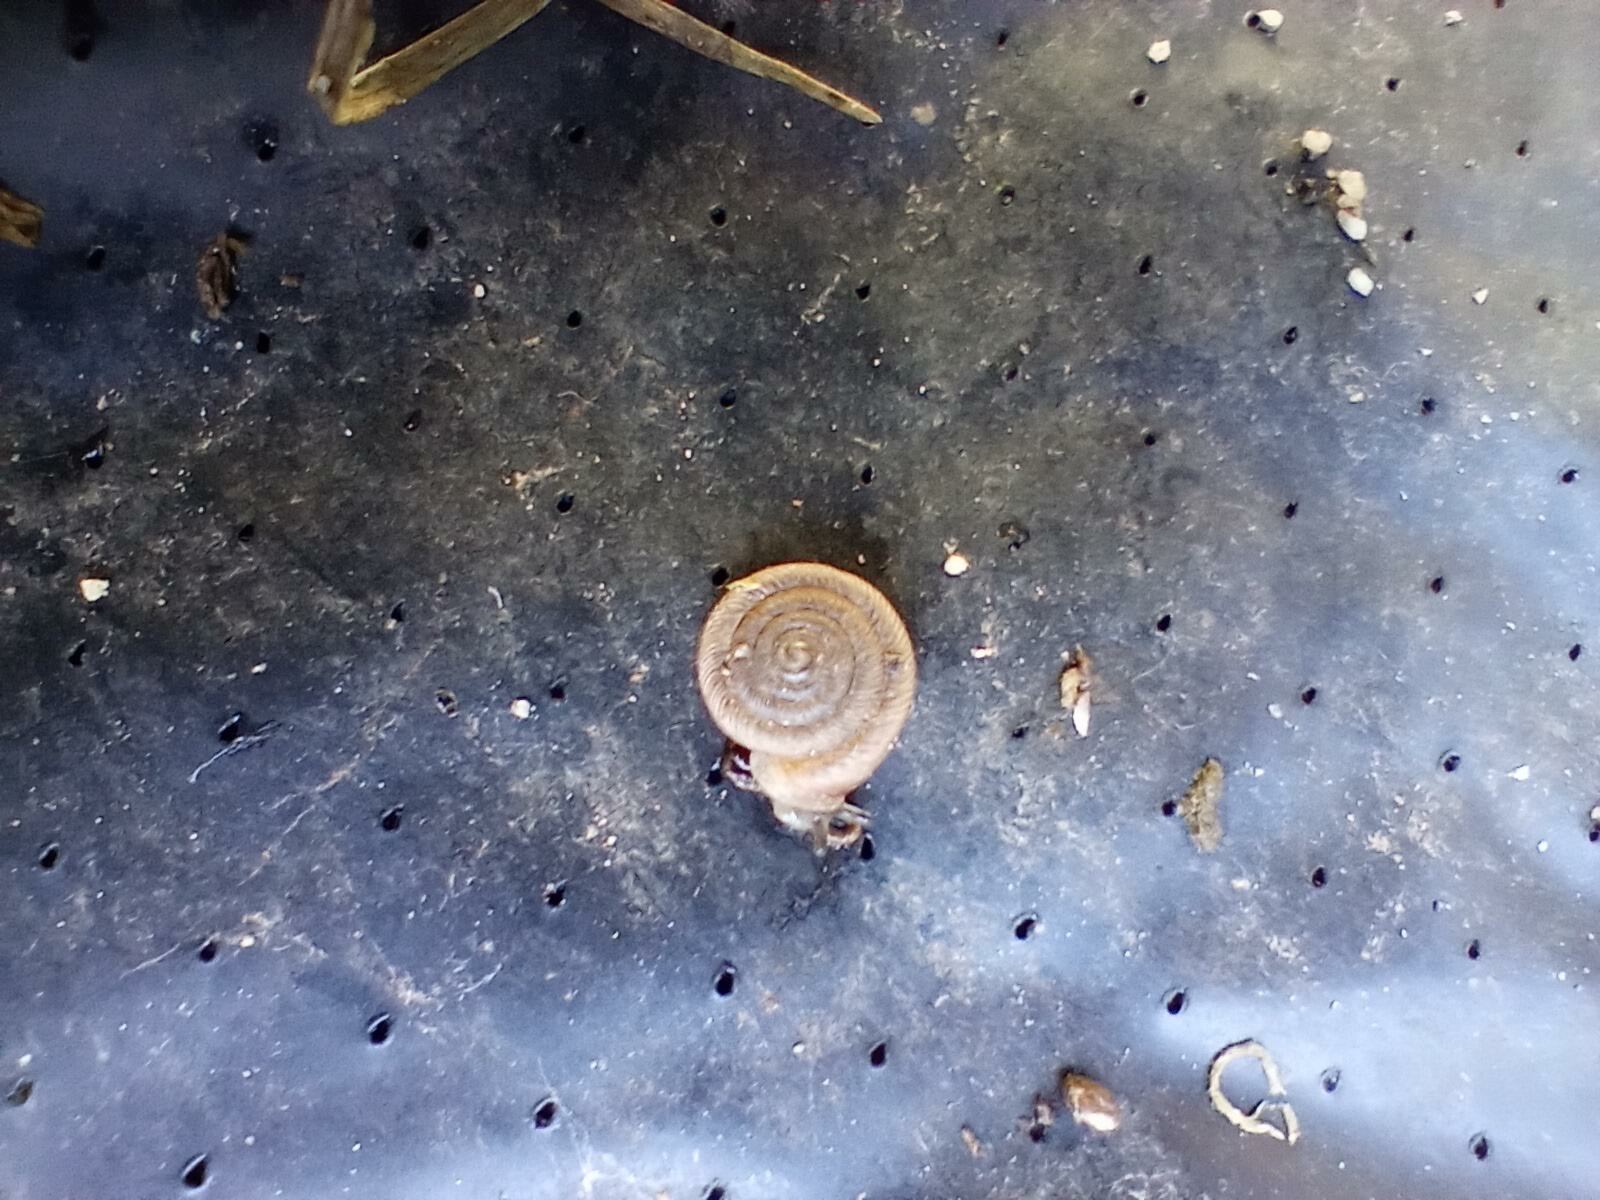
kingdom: Animalia
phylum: Mollusca
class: Gastropoda
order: Stylommatophora
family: Polygyridae
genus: Polygyra
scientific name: Polygyra cereolus
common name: Southern flatcone snail
